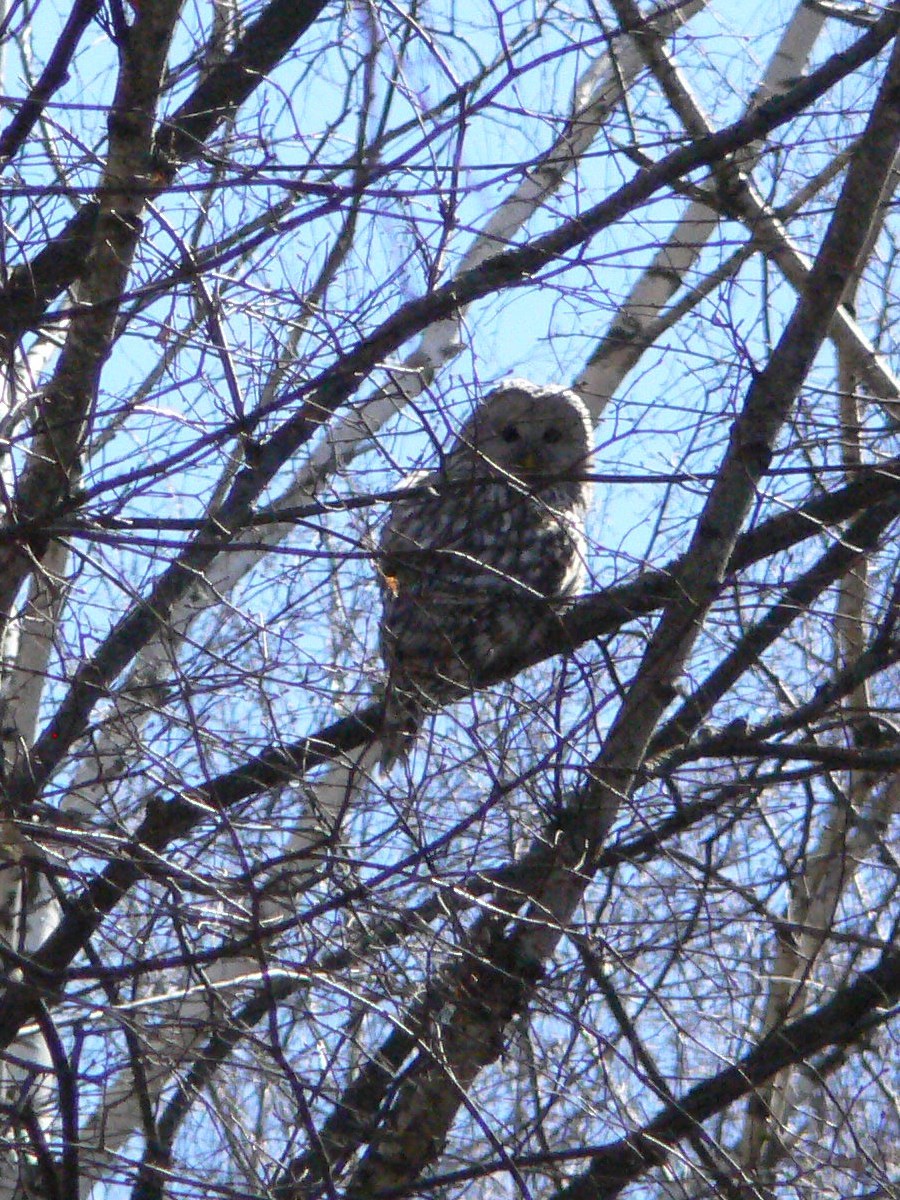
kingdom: Animalia
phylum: Chordata
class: Aves
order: Strigiformes
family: Strigidae
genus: Strix
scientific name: Strix uralensis
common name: Ural owl
